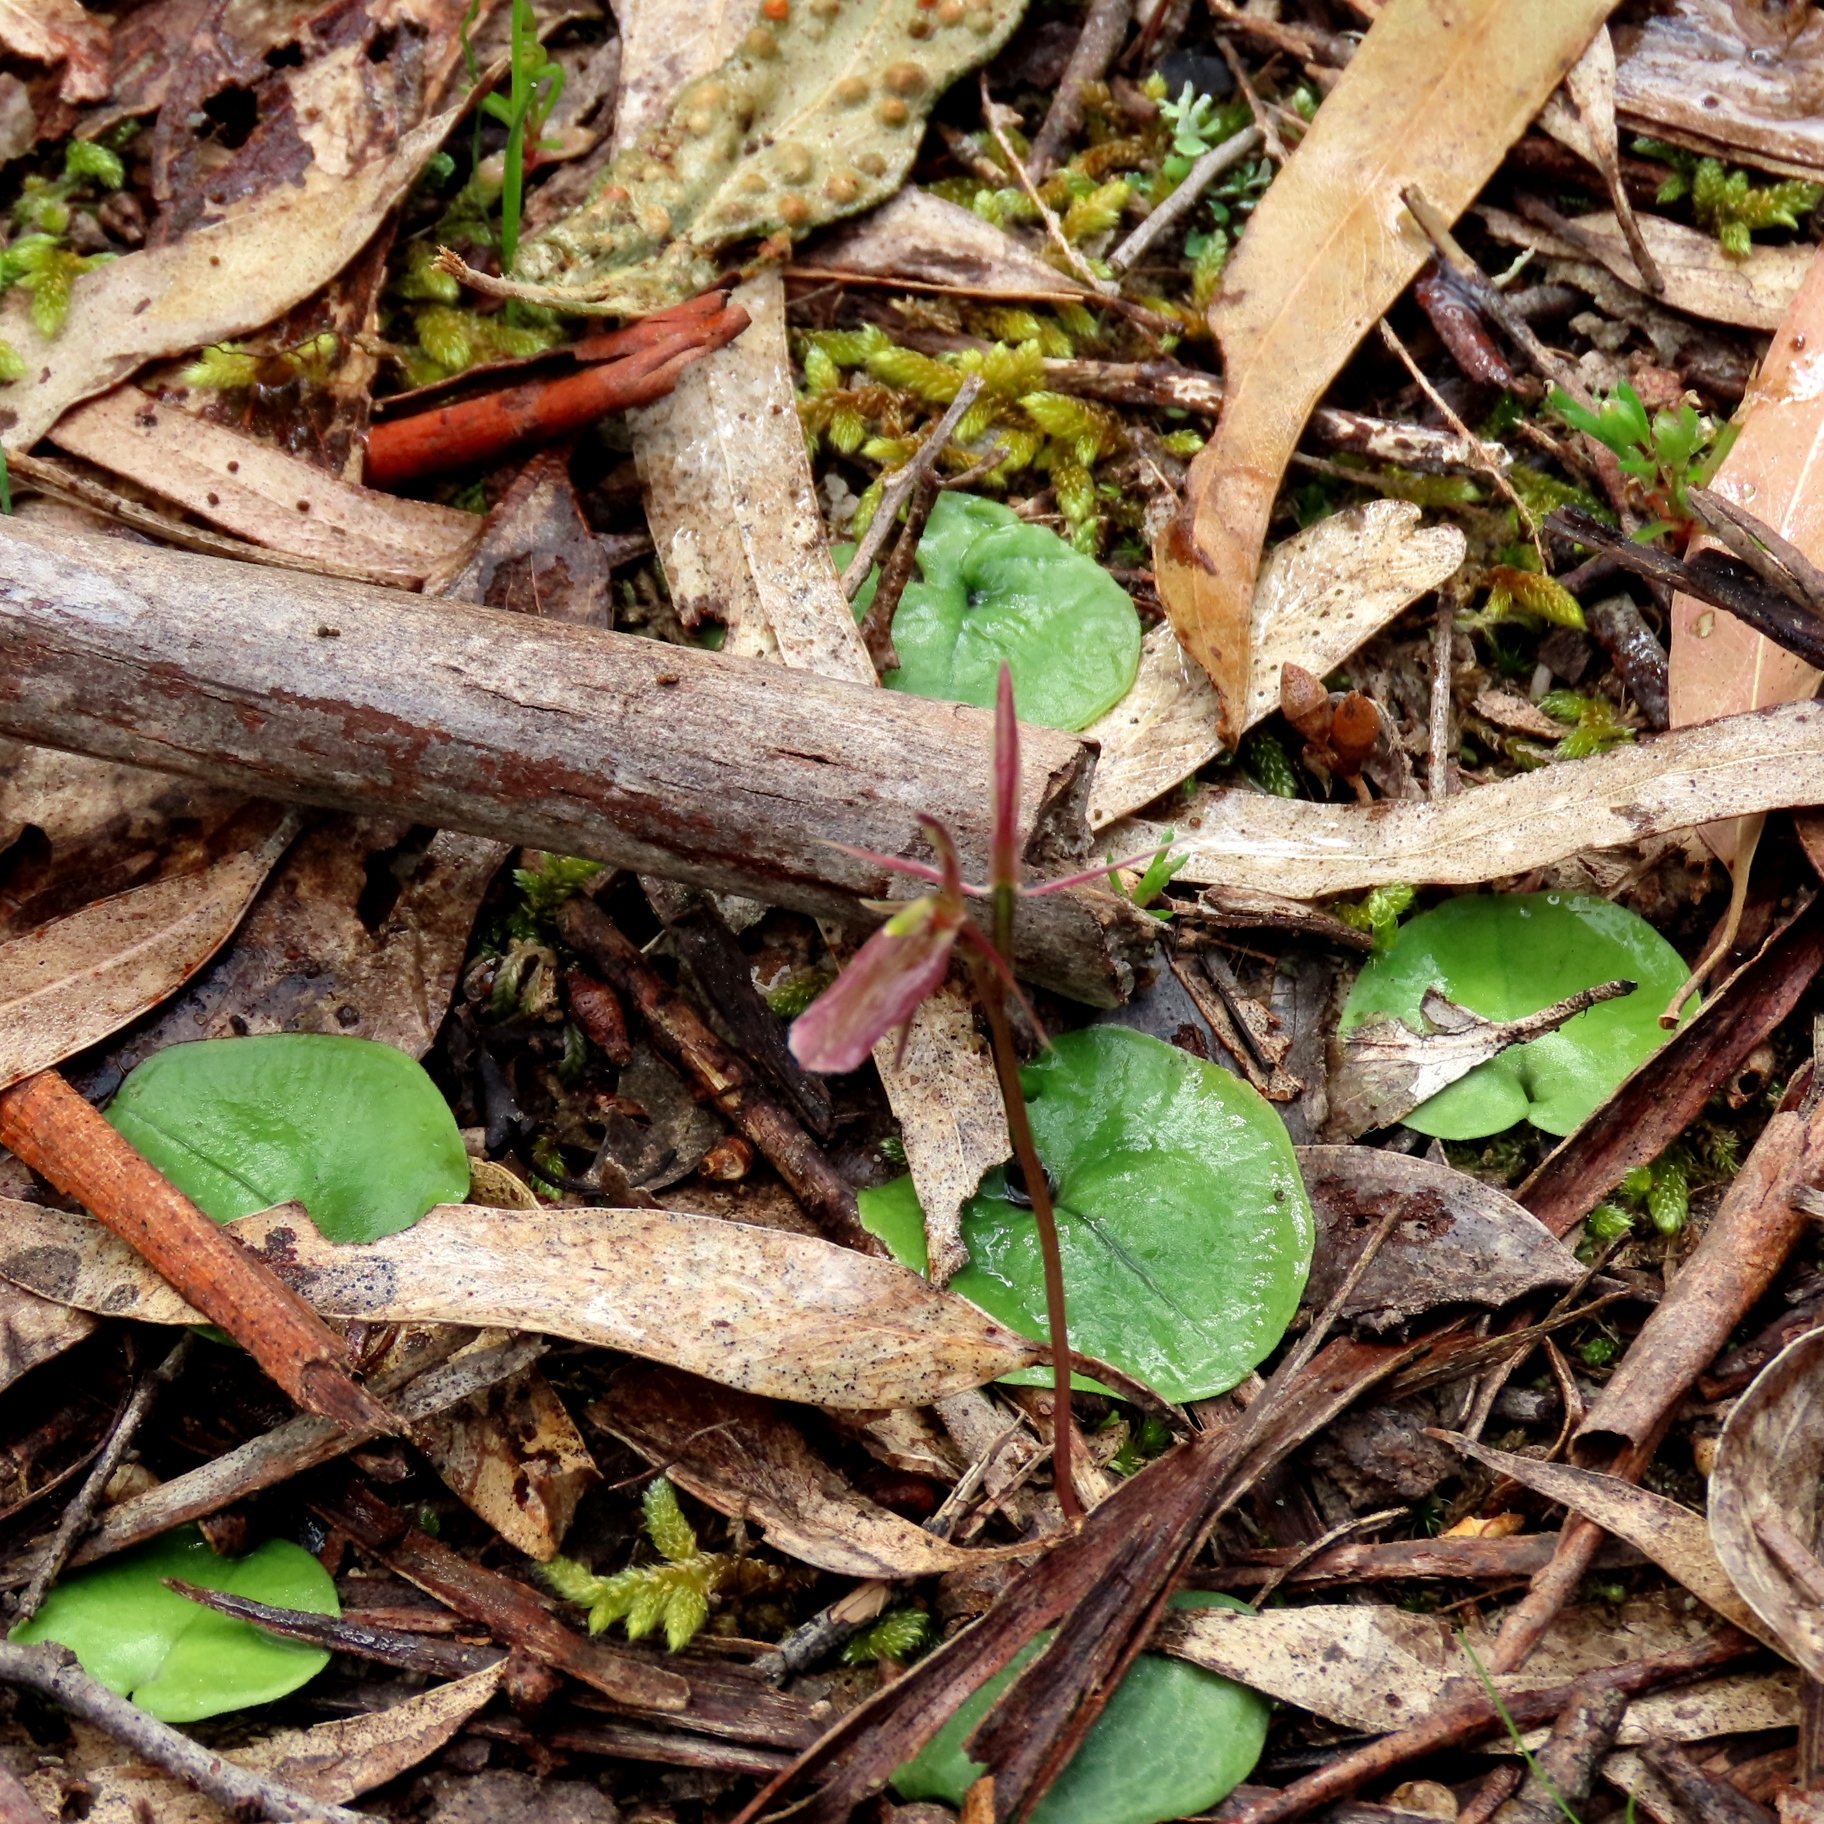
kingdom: Plantae
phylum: Tracheophyta
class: Liliopsida
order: Asparagales
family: Orchidaceae
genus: Cyrtostylis
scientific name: Cyrtostylis reniformis
